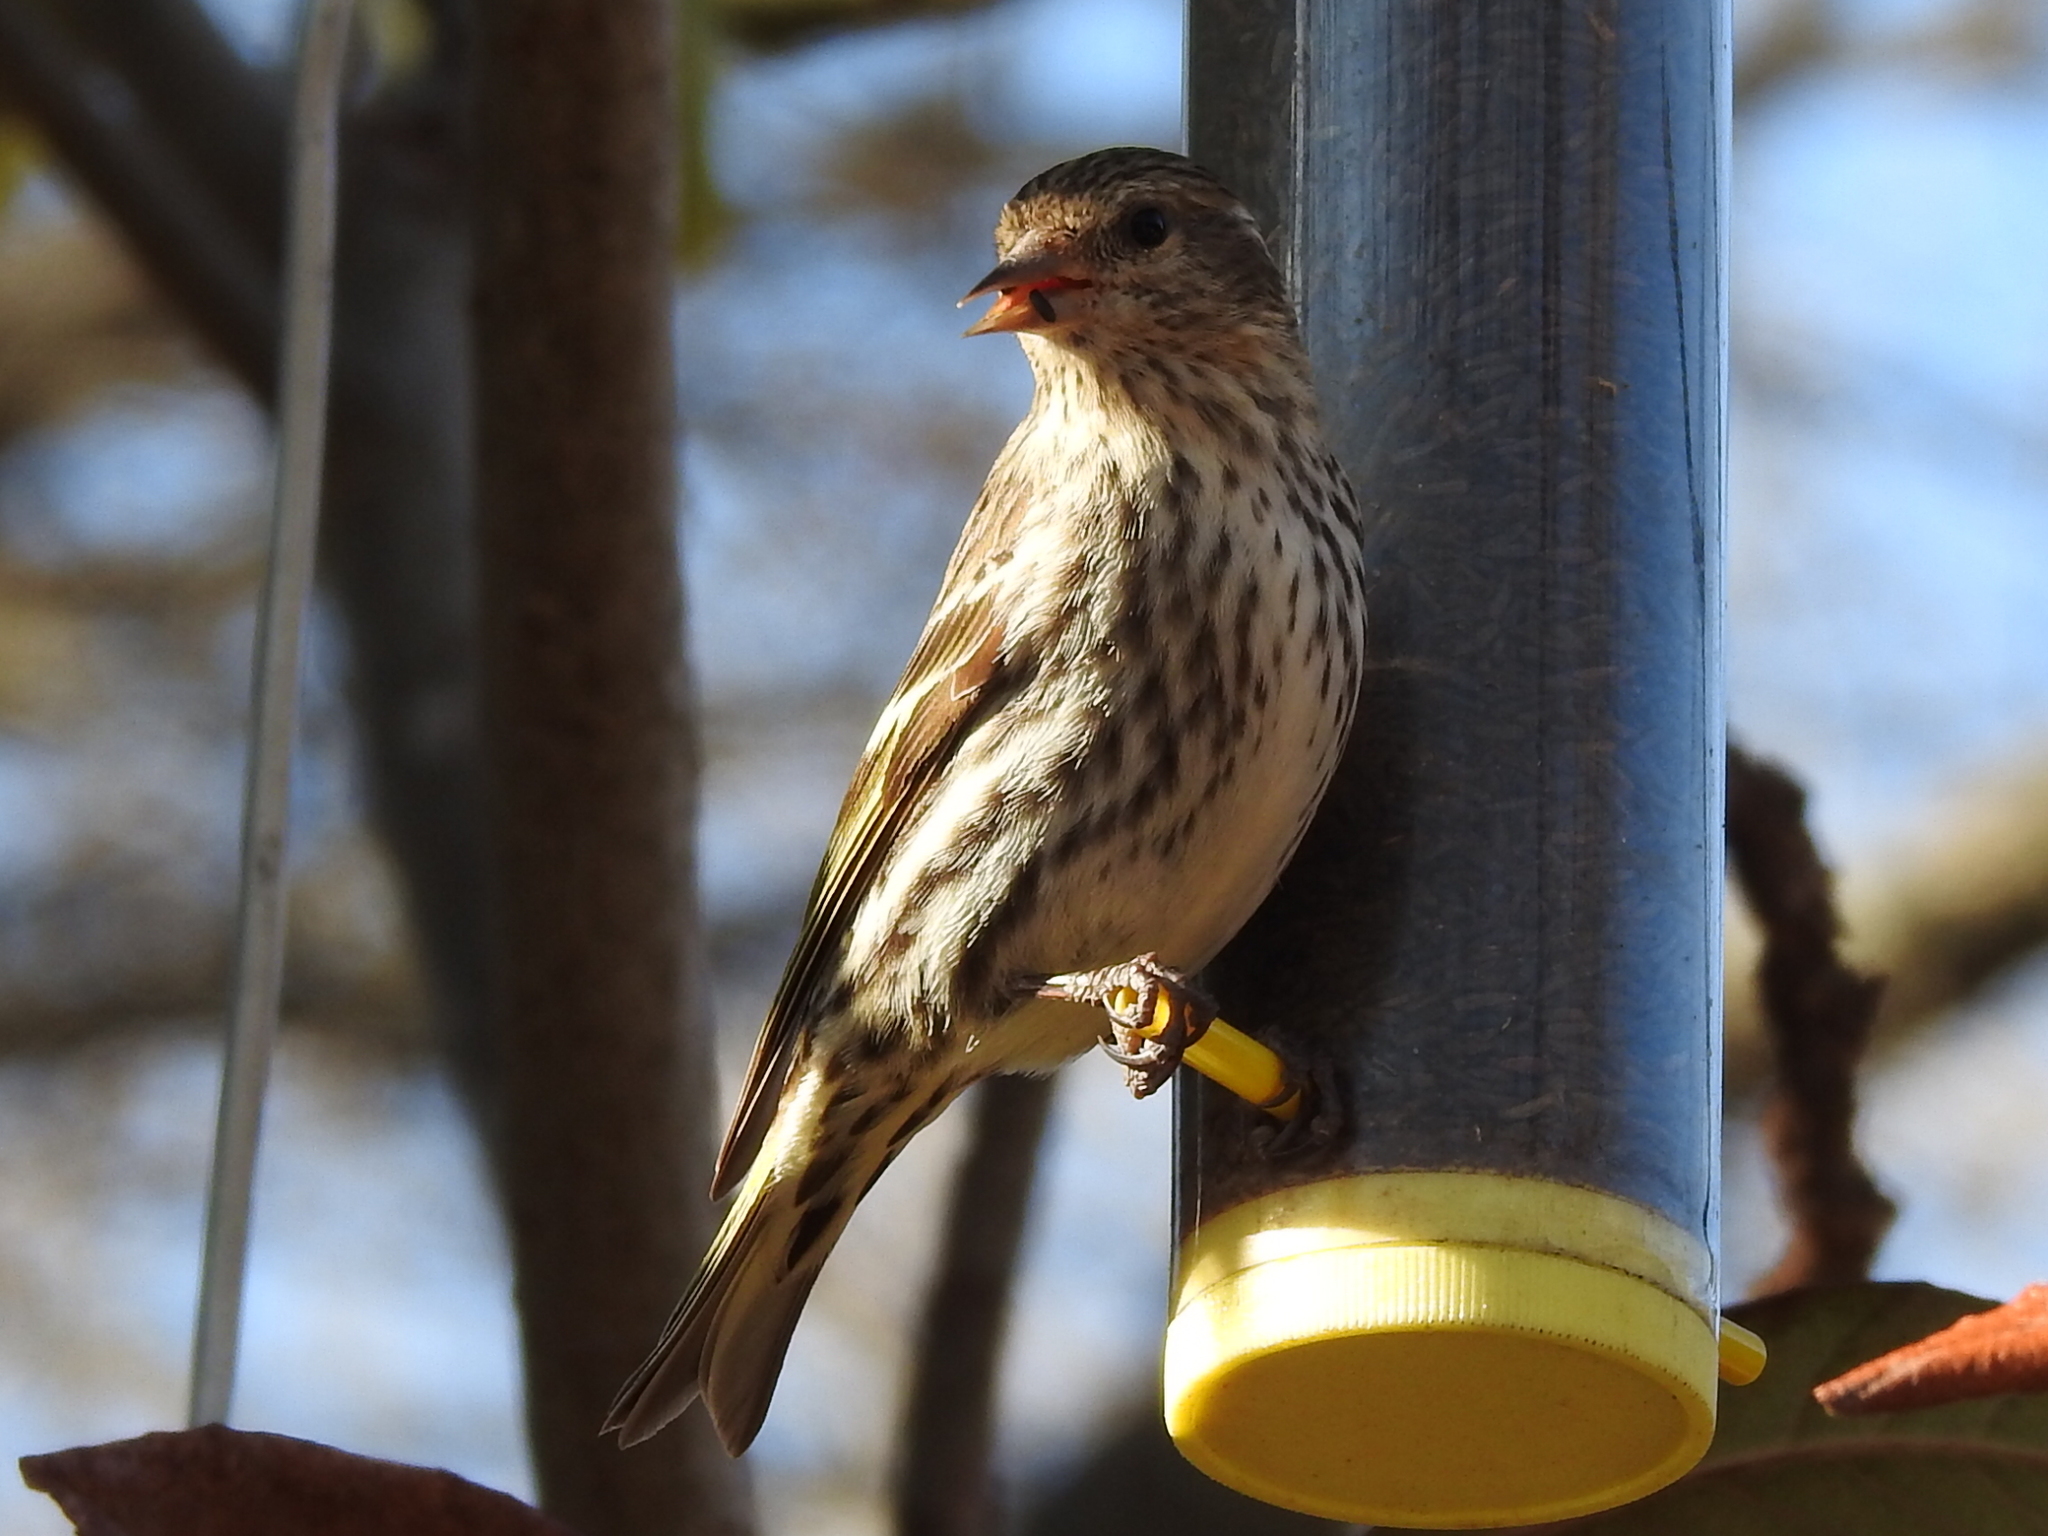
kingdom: Animalia
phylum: Chordata
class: Aves
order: Passeriformes
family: Fringillidae
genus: Spinus
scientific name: Spinus pinus
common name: Pine siskin
